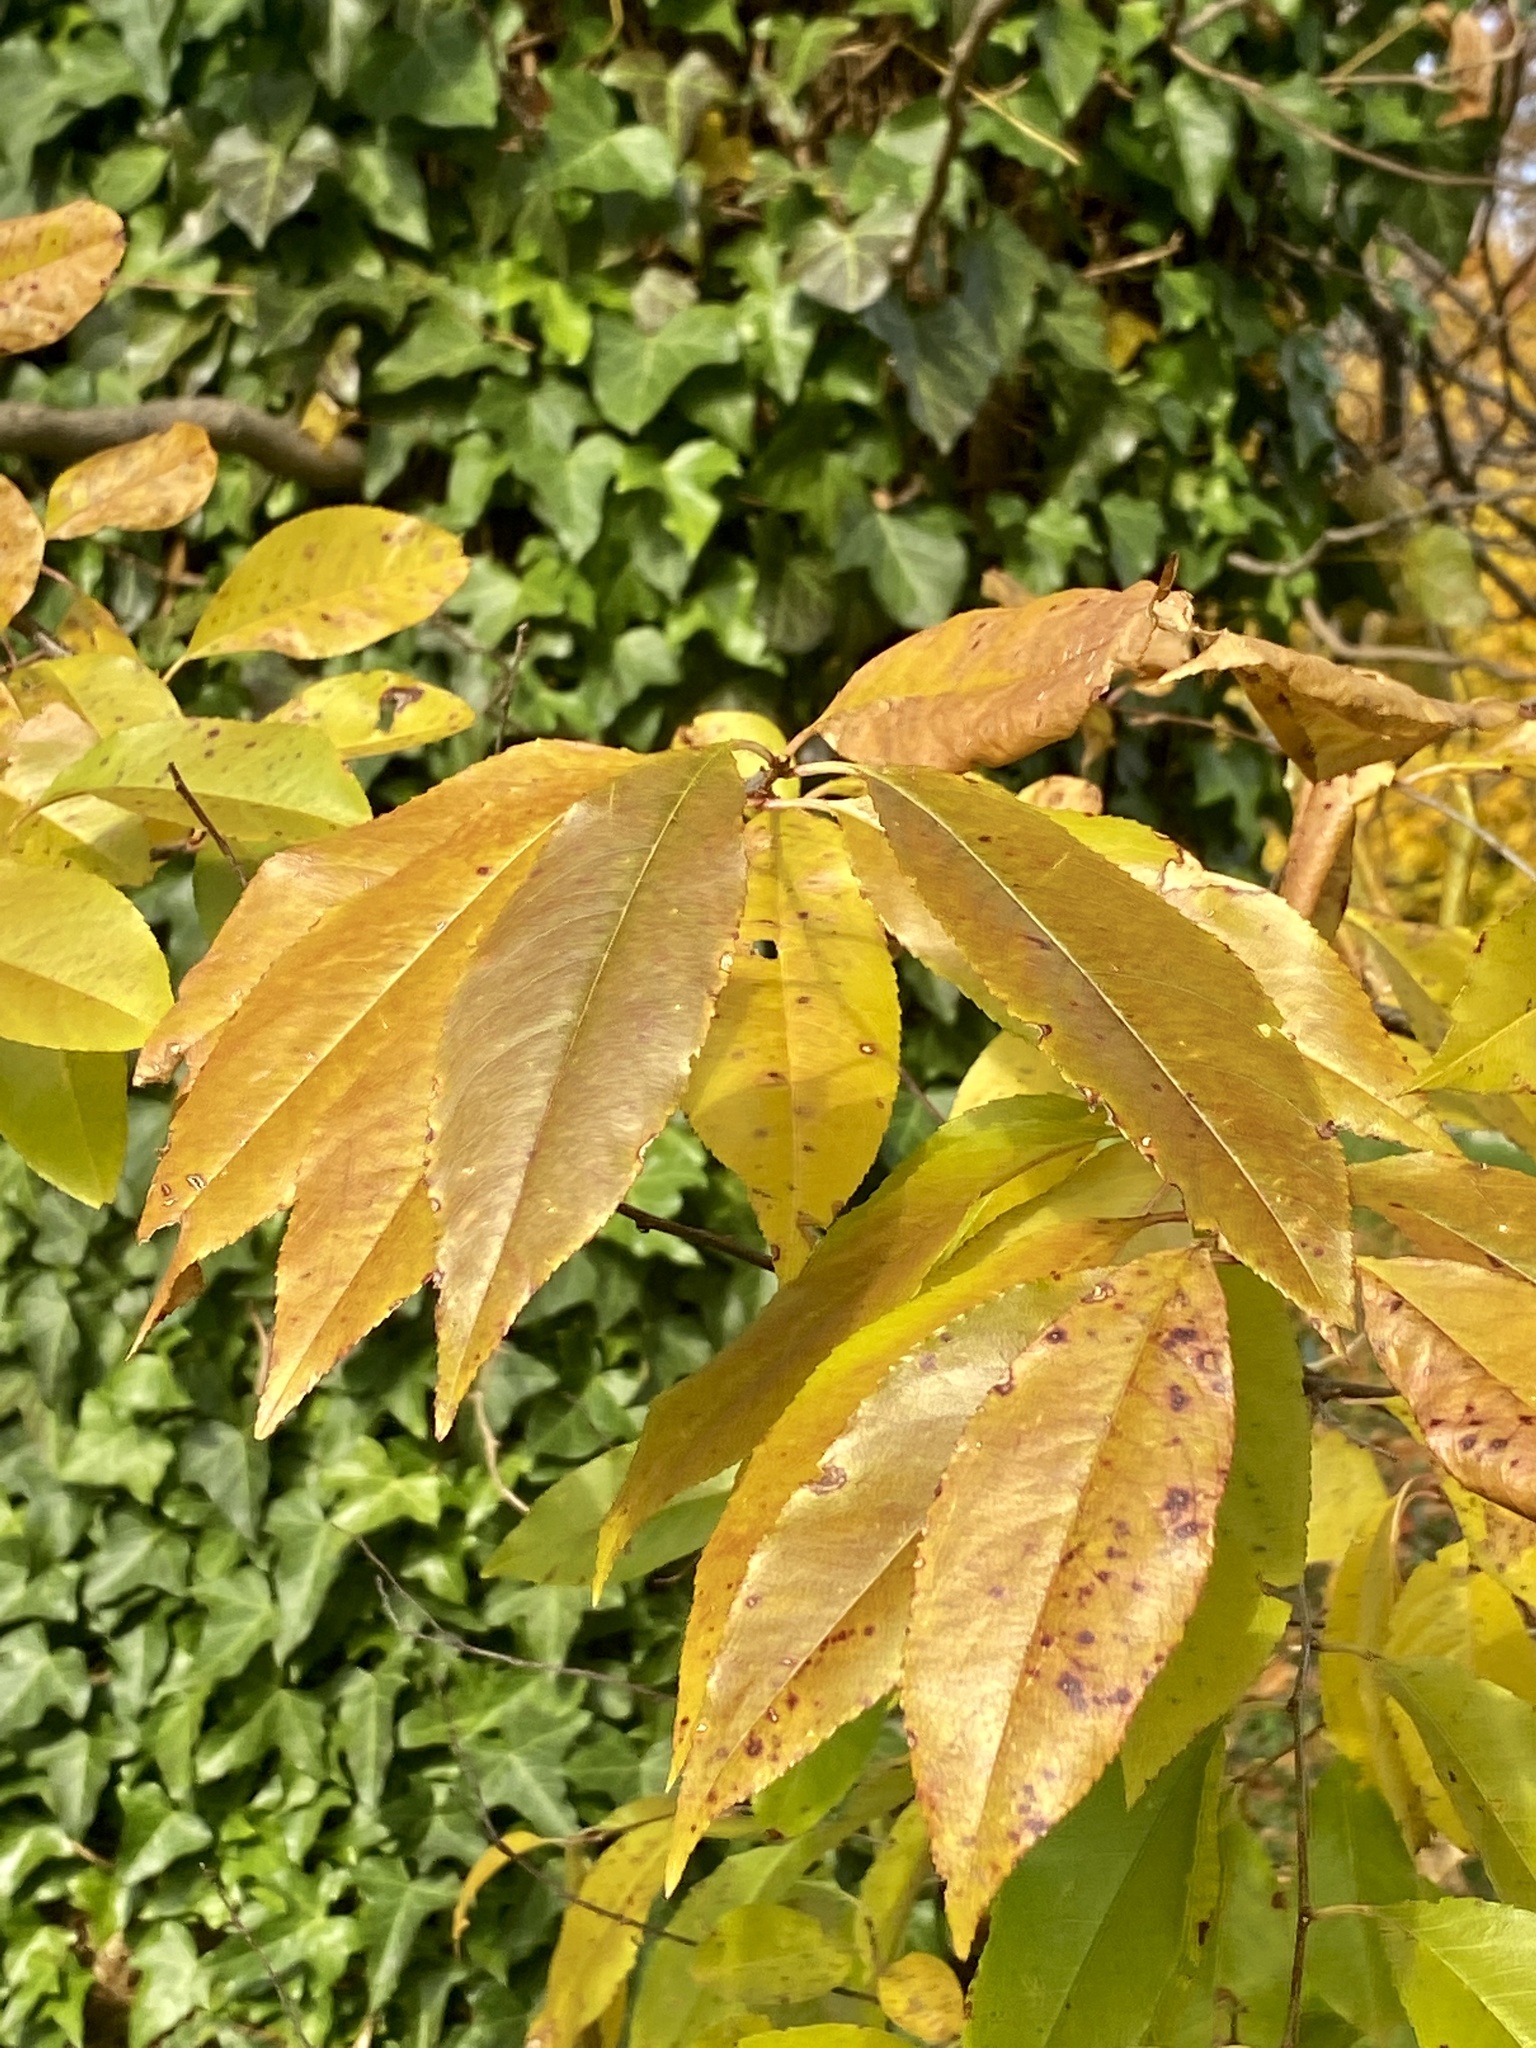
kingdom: Plantae
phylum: Tracheophyta
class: Magnoliopsida
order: Rosales
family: Rosaceae
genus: Prunus
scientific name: Prunus serotina
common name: Black cherry
